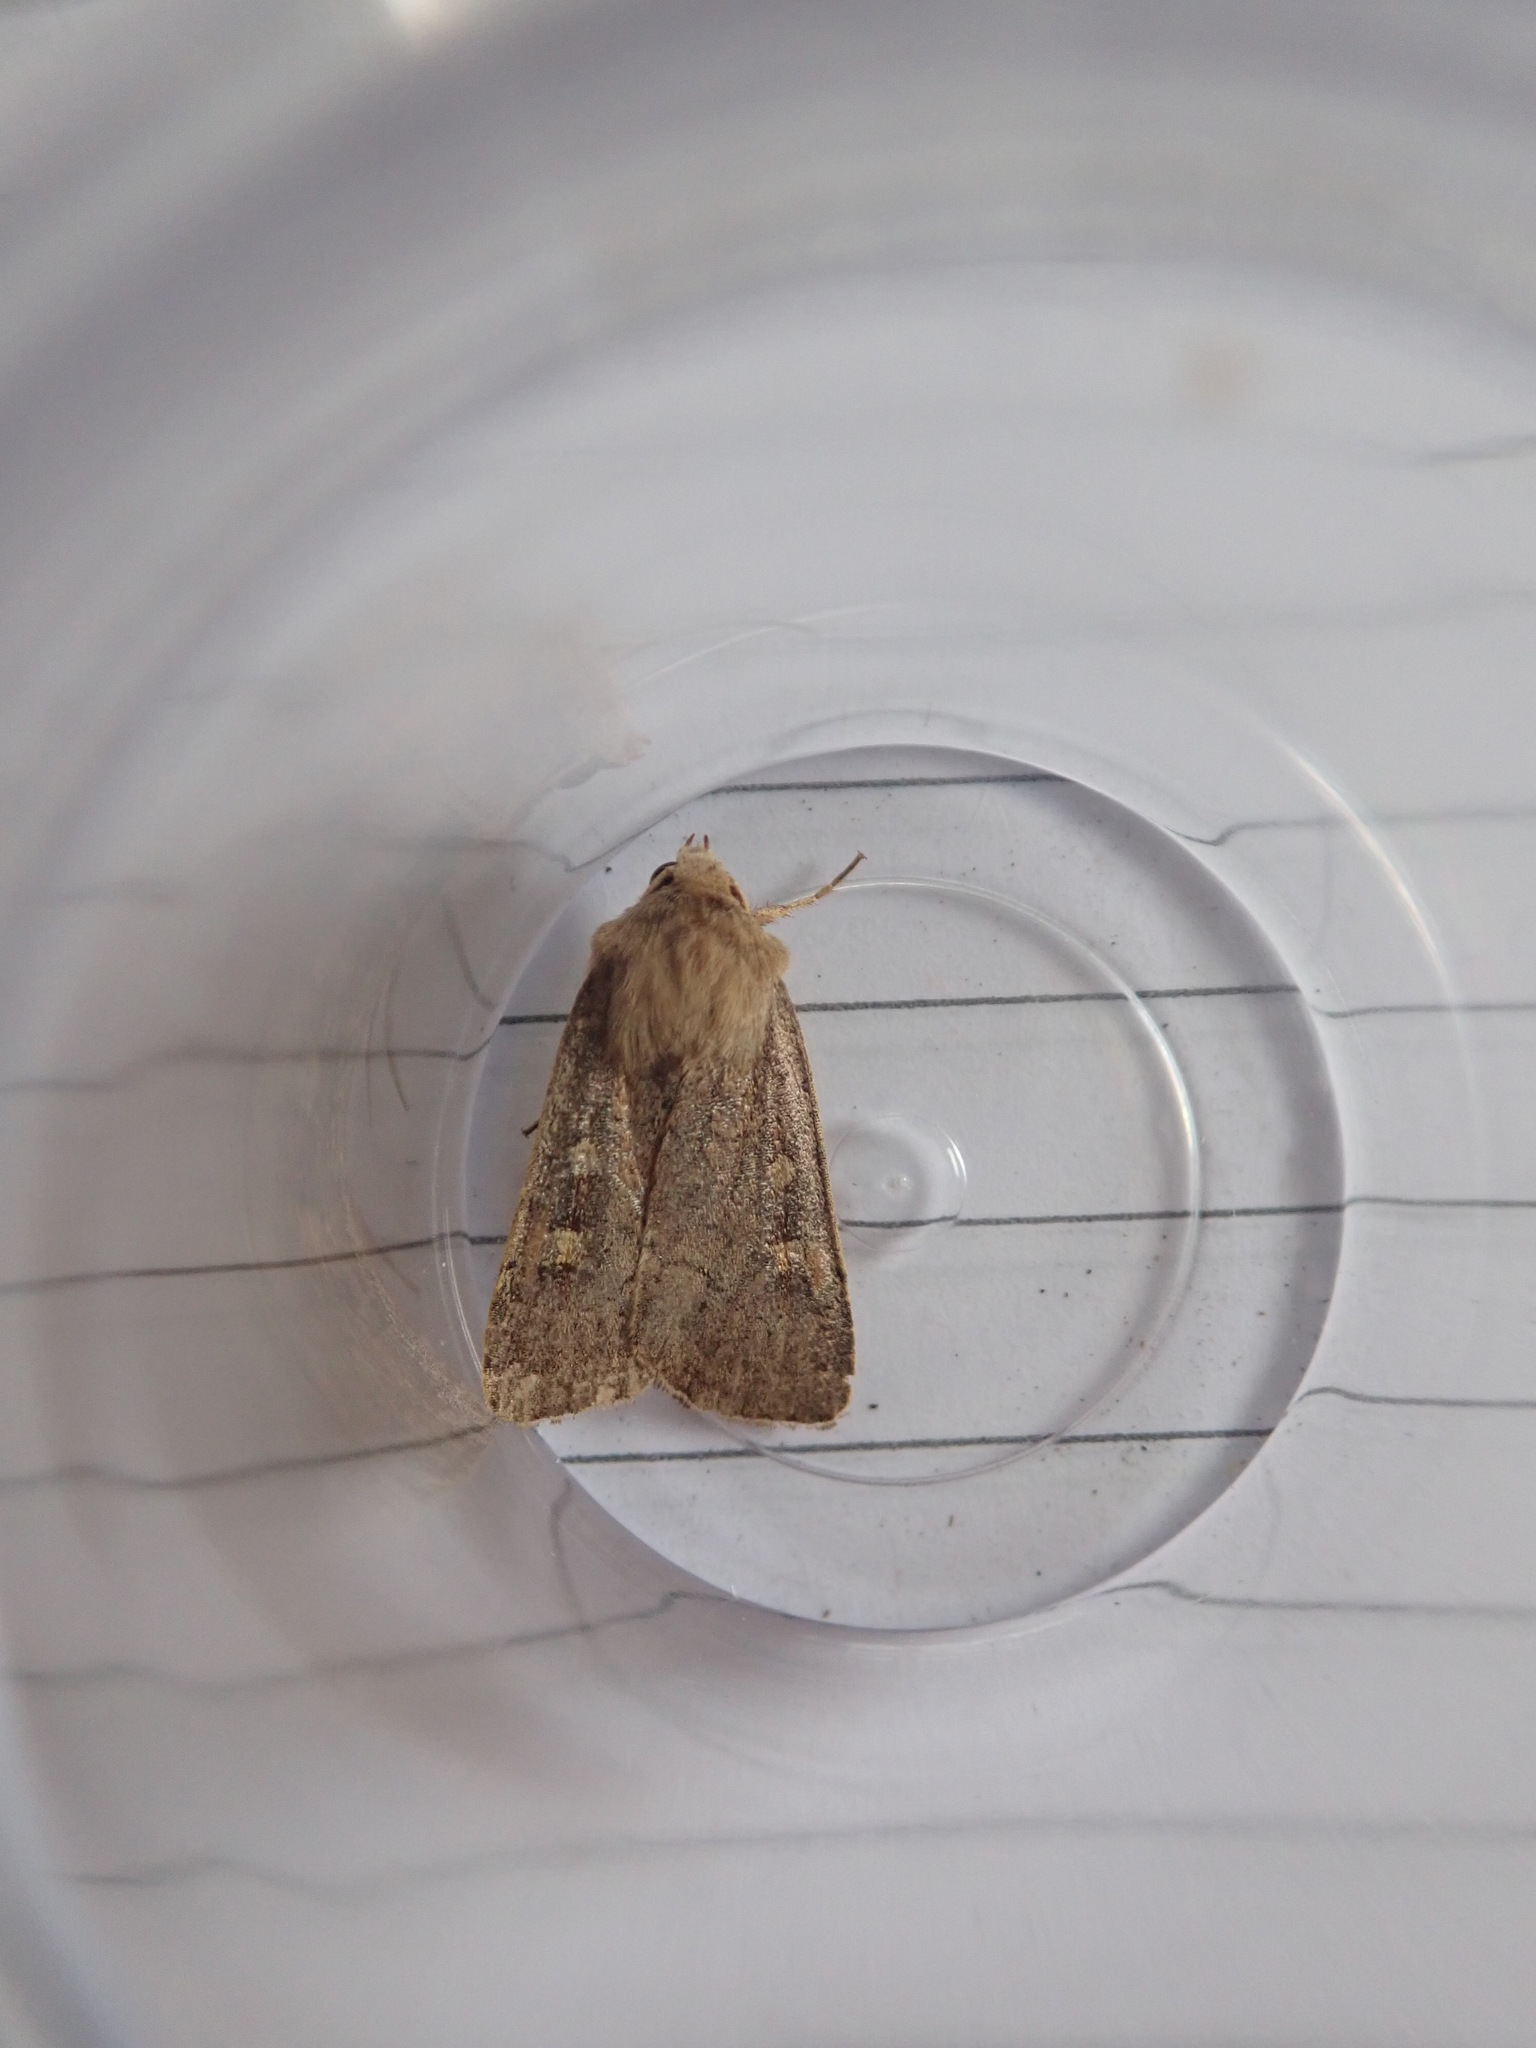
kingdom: Animalia
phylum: Arthropoda
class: Insecta
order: Lepidoptera
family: Noctuidae
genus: Xestia
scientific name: Xestia xanthographa
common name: Square-spot rustic
